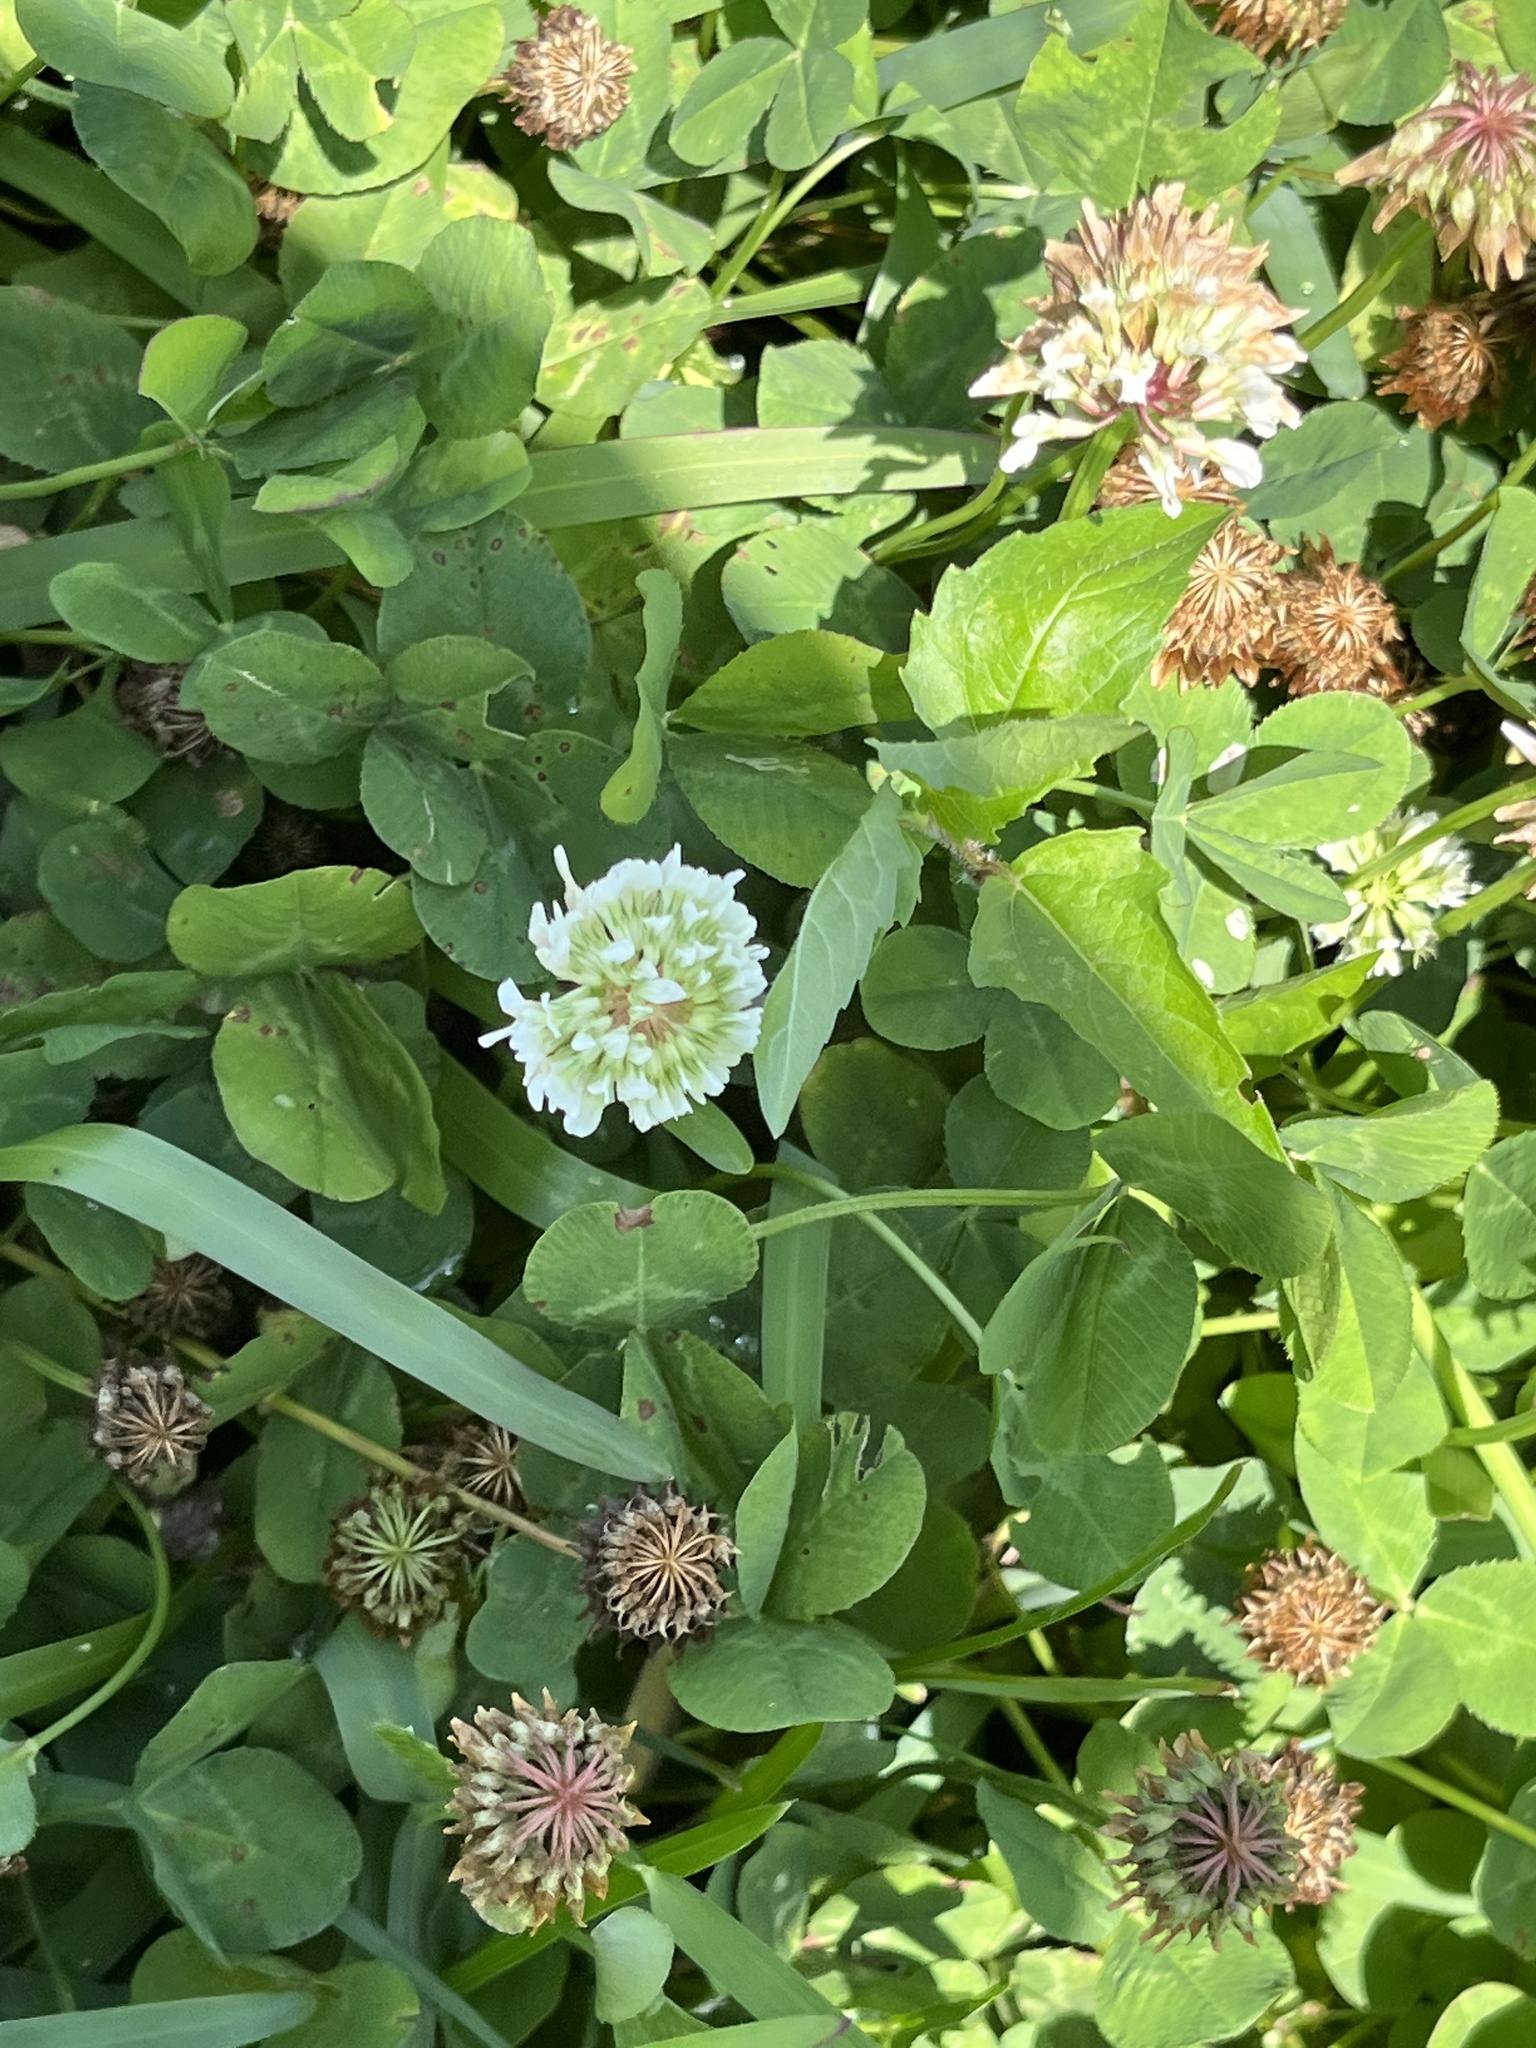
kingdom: Plantae
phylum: Tracheophyta
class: Magnoliopsida
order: Fabales
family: Fabaceae
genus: Trifolium
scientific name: Trifolium repens
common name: White clover
